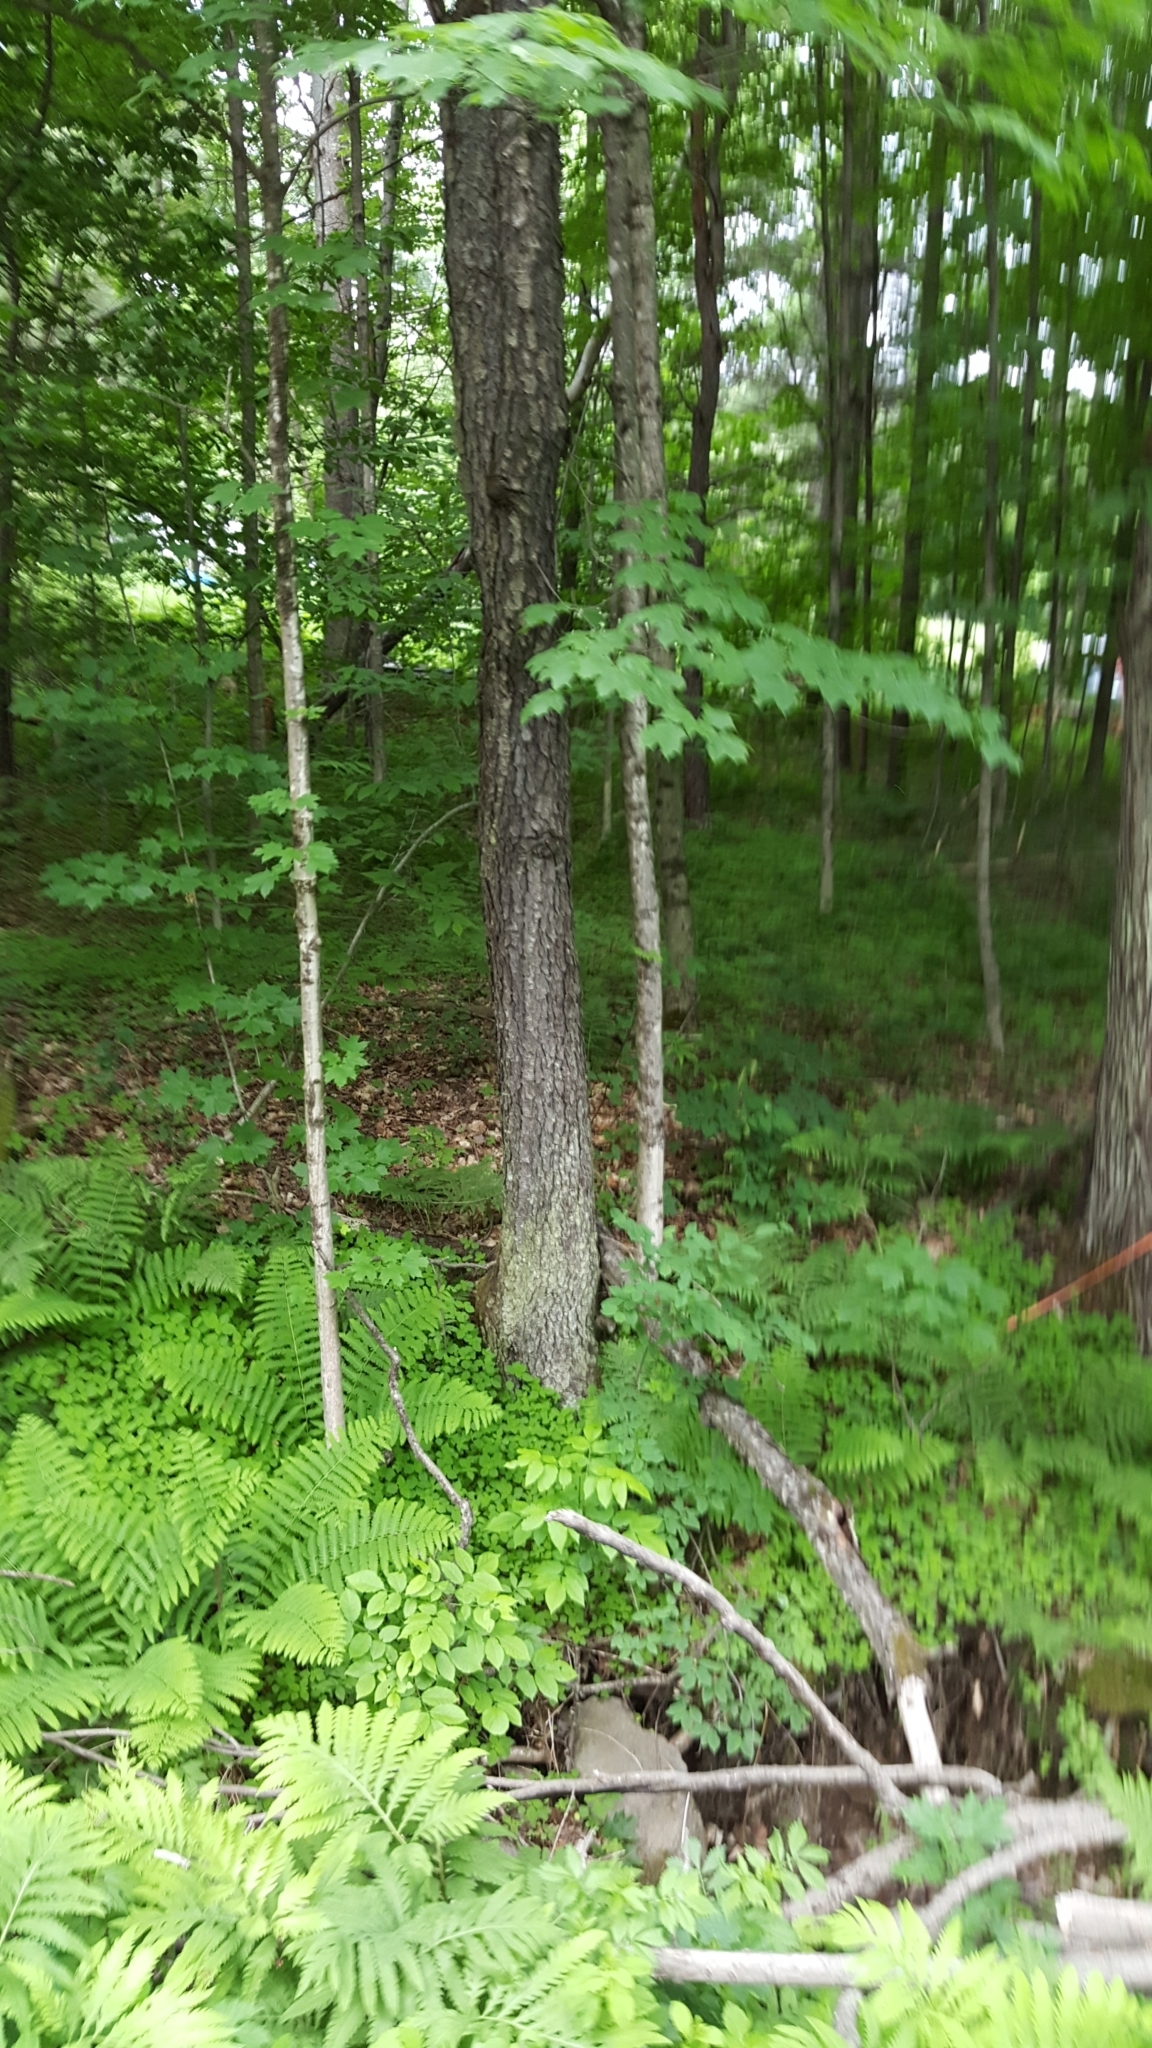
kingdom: Plantae
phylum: Tracheophyta
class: Magnoliopsida
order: Rosales
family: Rosaceae
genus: Prunus
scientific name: Prunus serotina
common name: Black cherry
